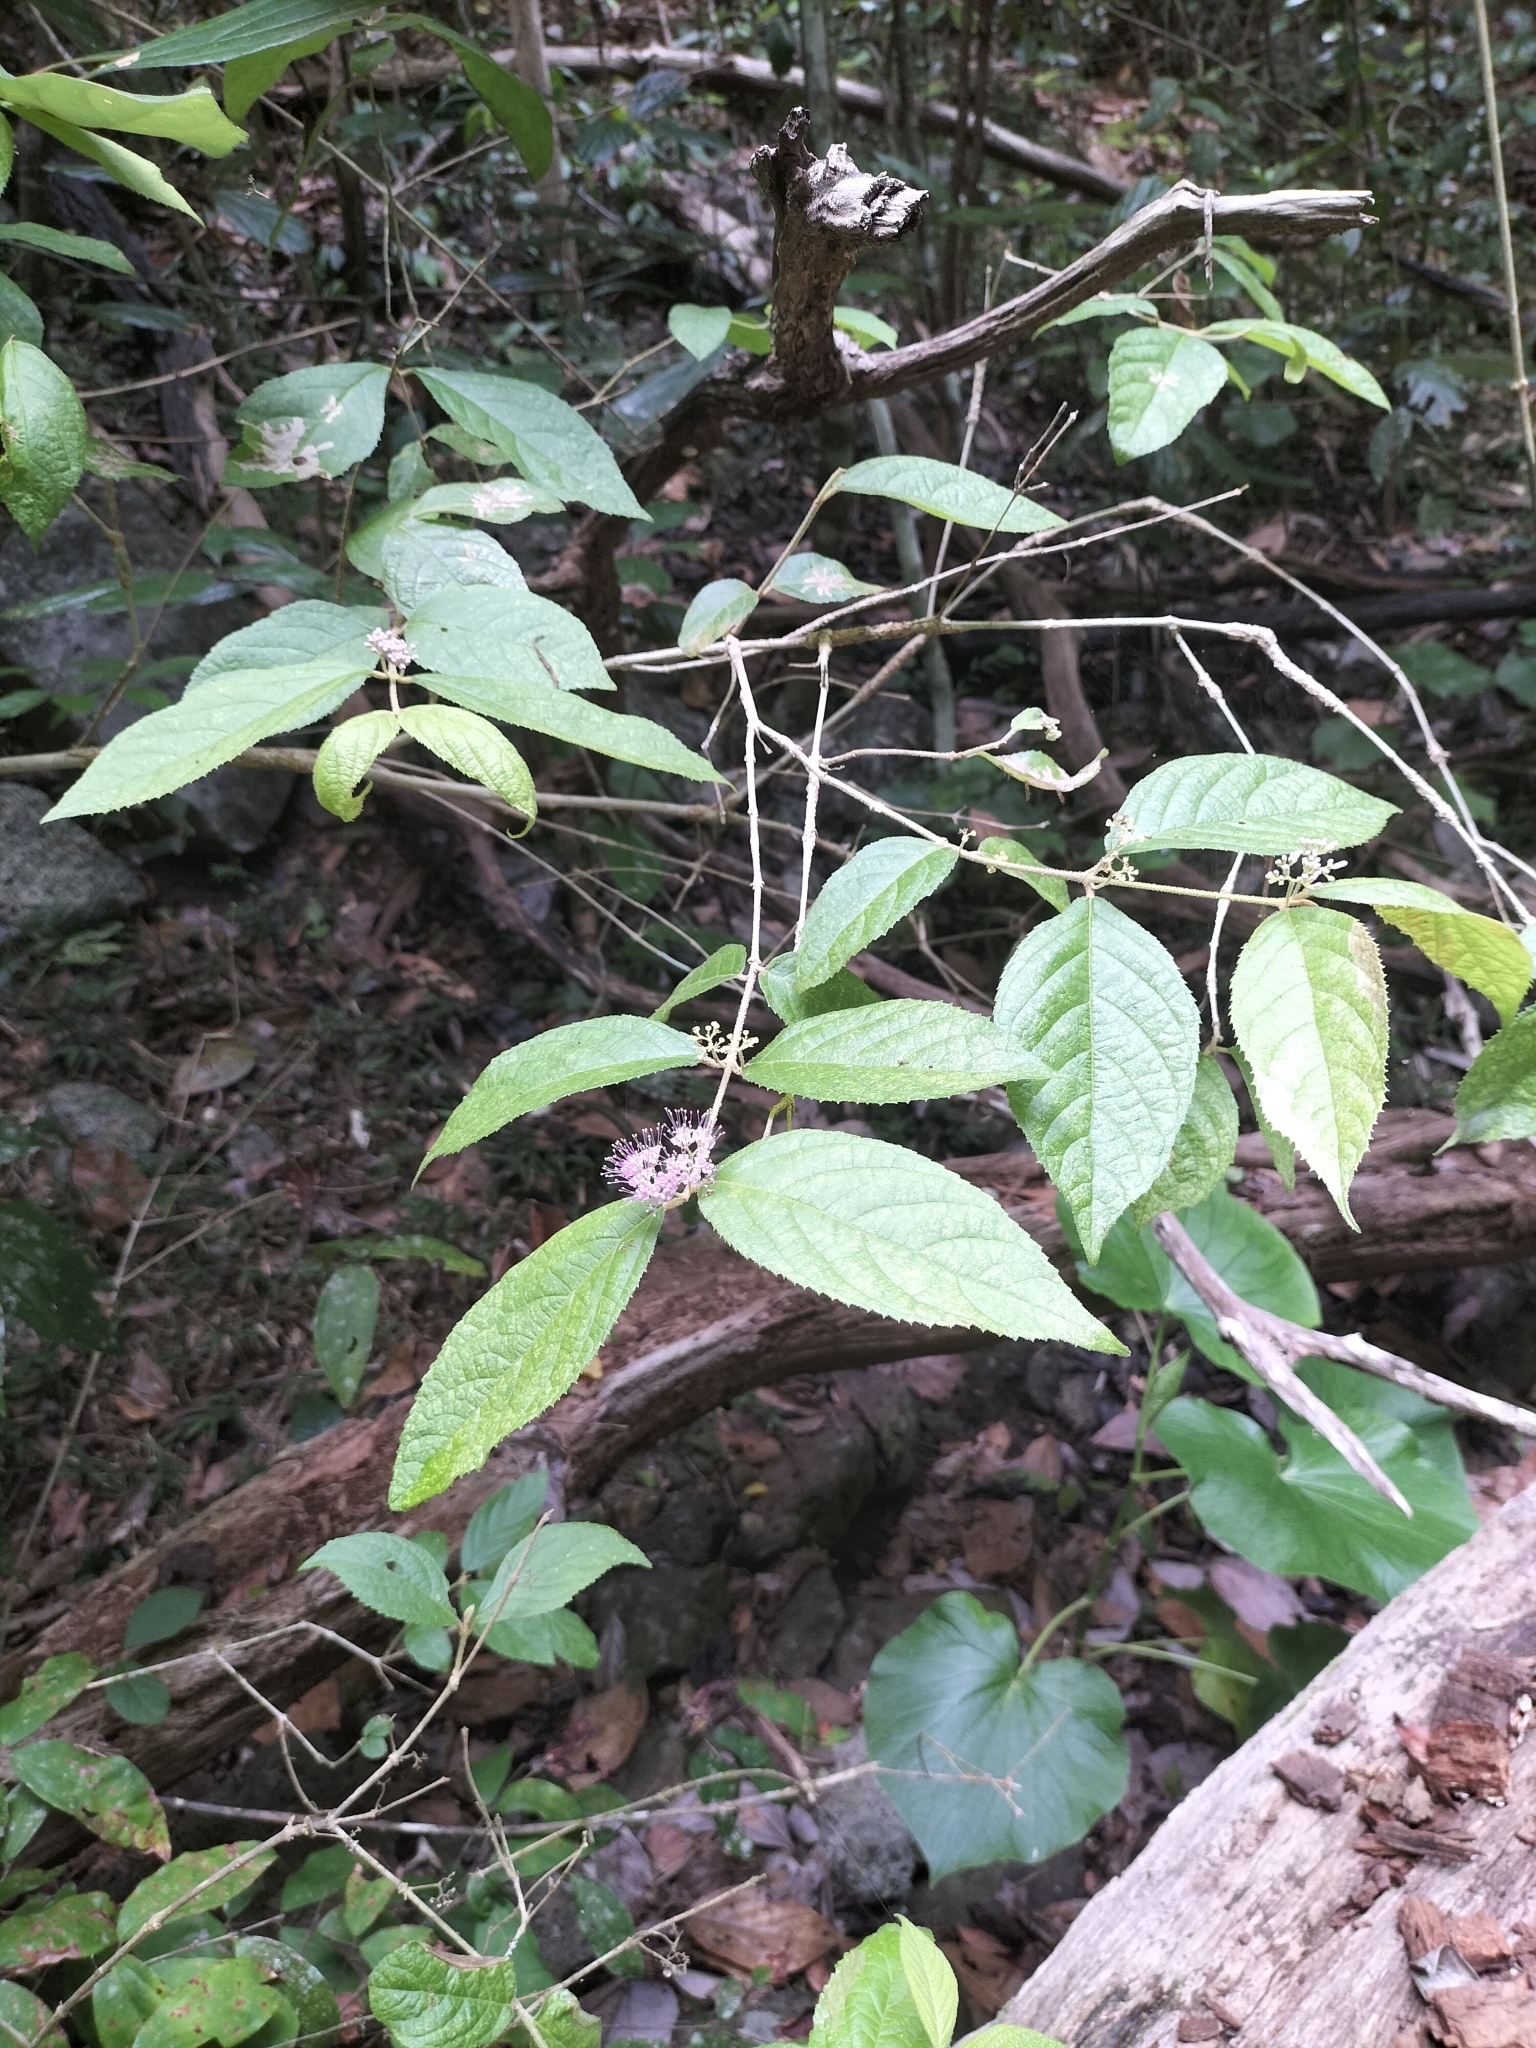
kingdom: Plantae
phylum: Tracheophyta
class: Magnoliopsida
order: Lamiales
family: Lamiaceae
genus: Callicarpa
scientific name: Callicarpa pedunculata
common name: Velvetleaf
